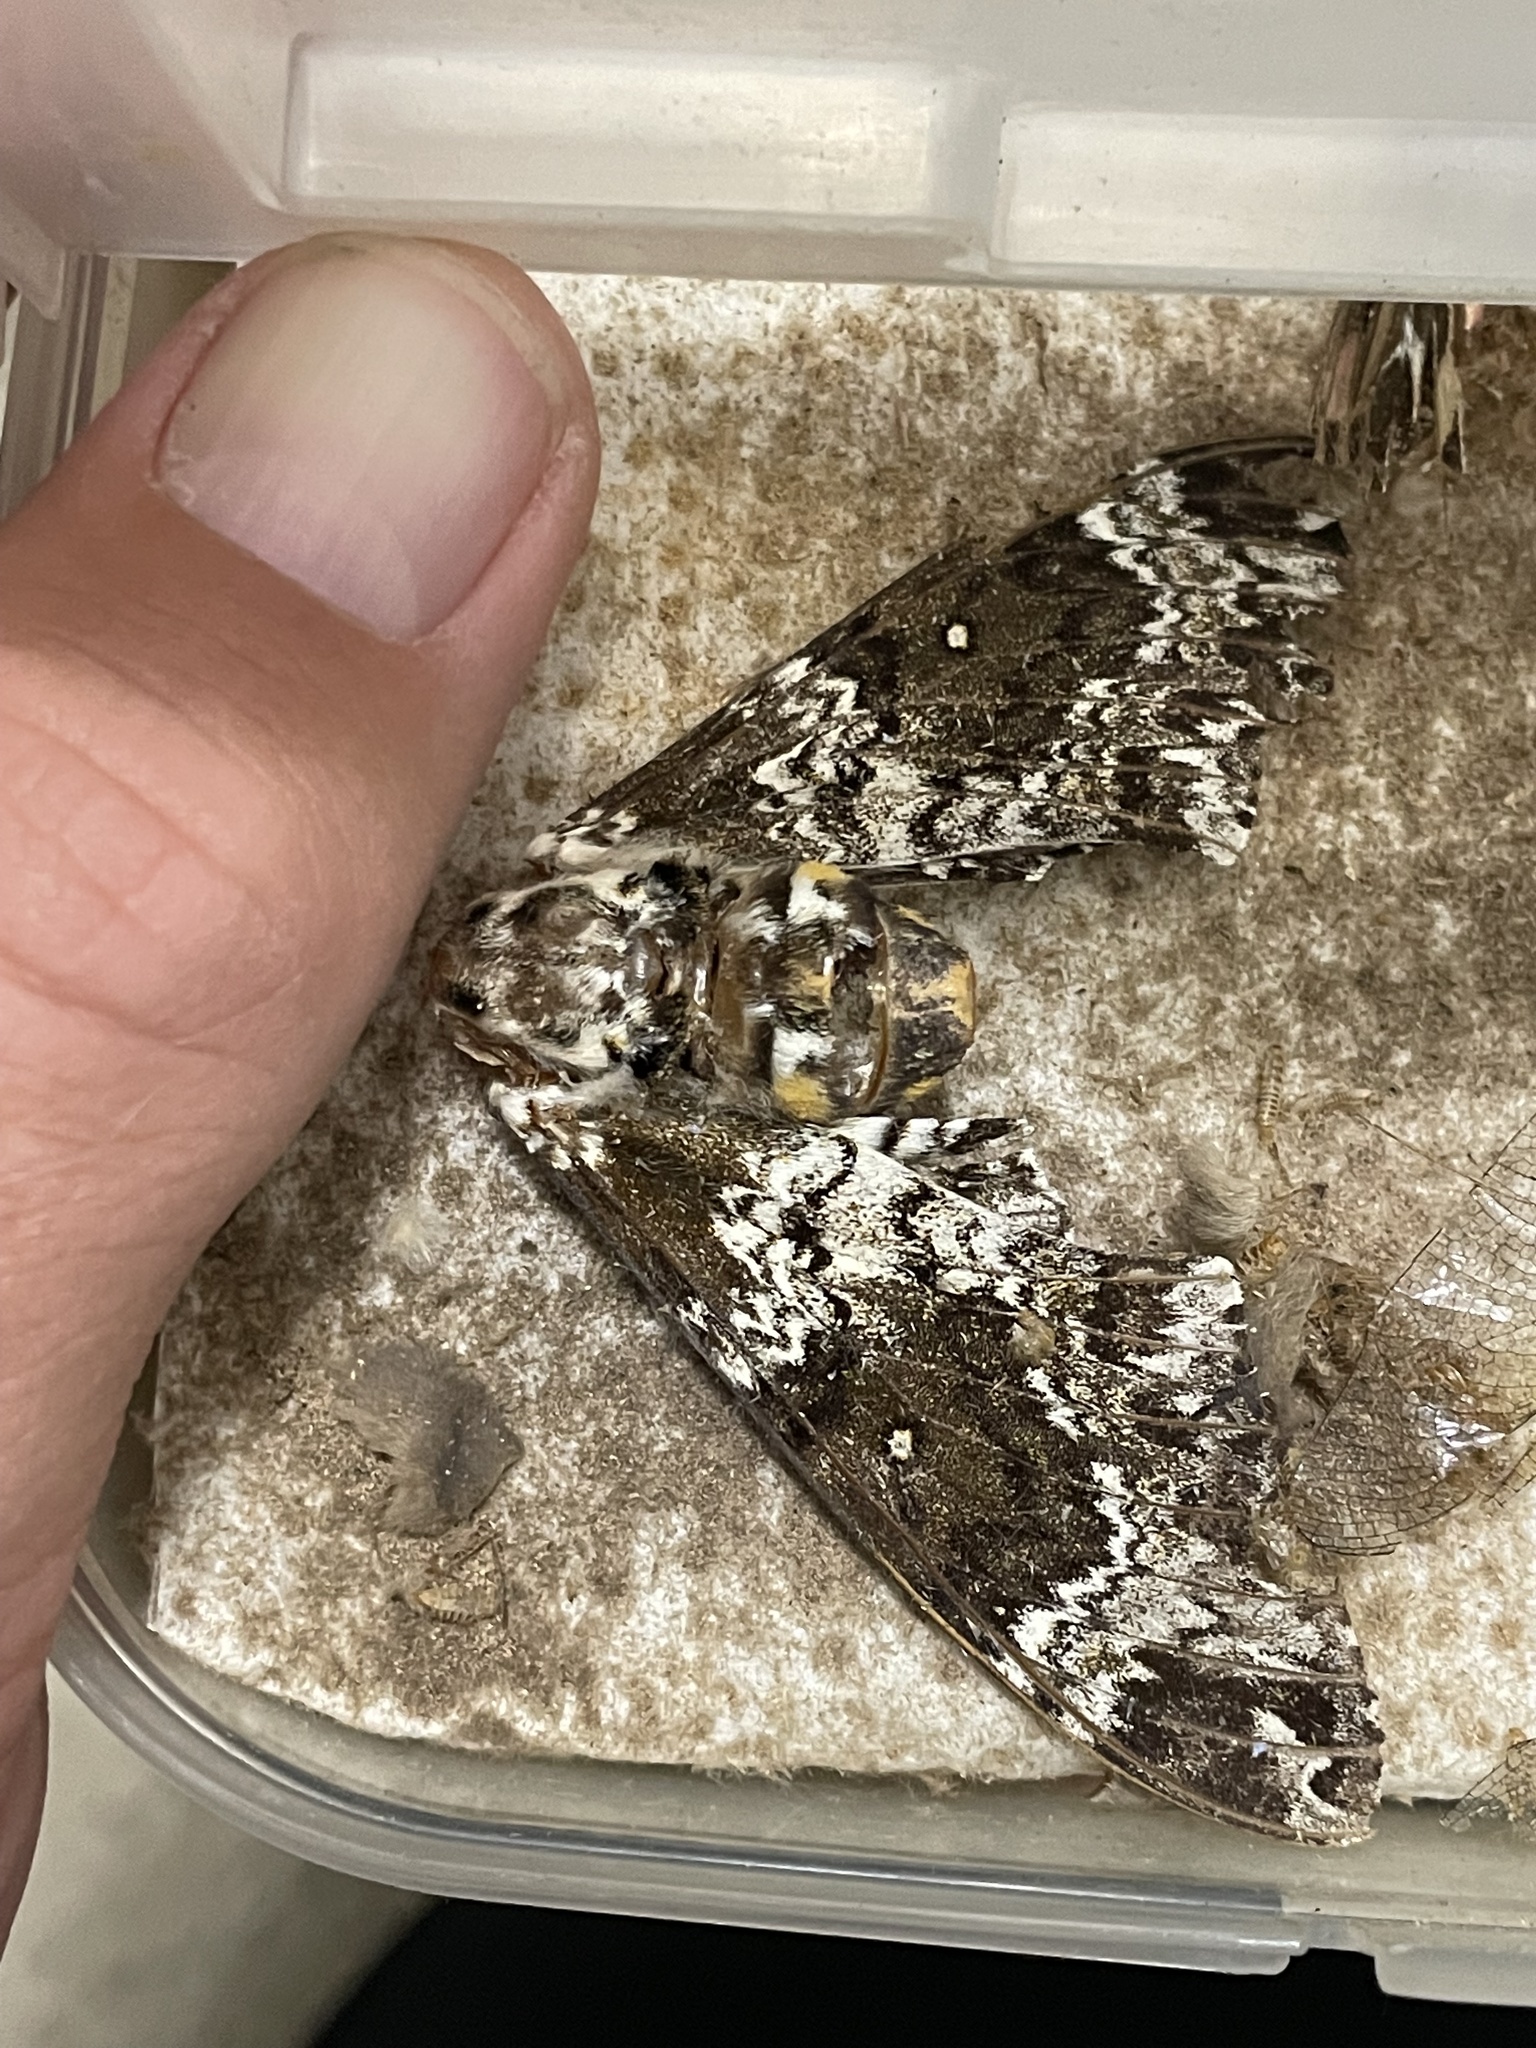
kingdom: Animalia
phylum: Arthropoda
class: Insecta
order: Lepidoptera
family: Sphingidae
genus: Manduca
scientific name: Manduca rustica
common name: Rustic sphinx
